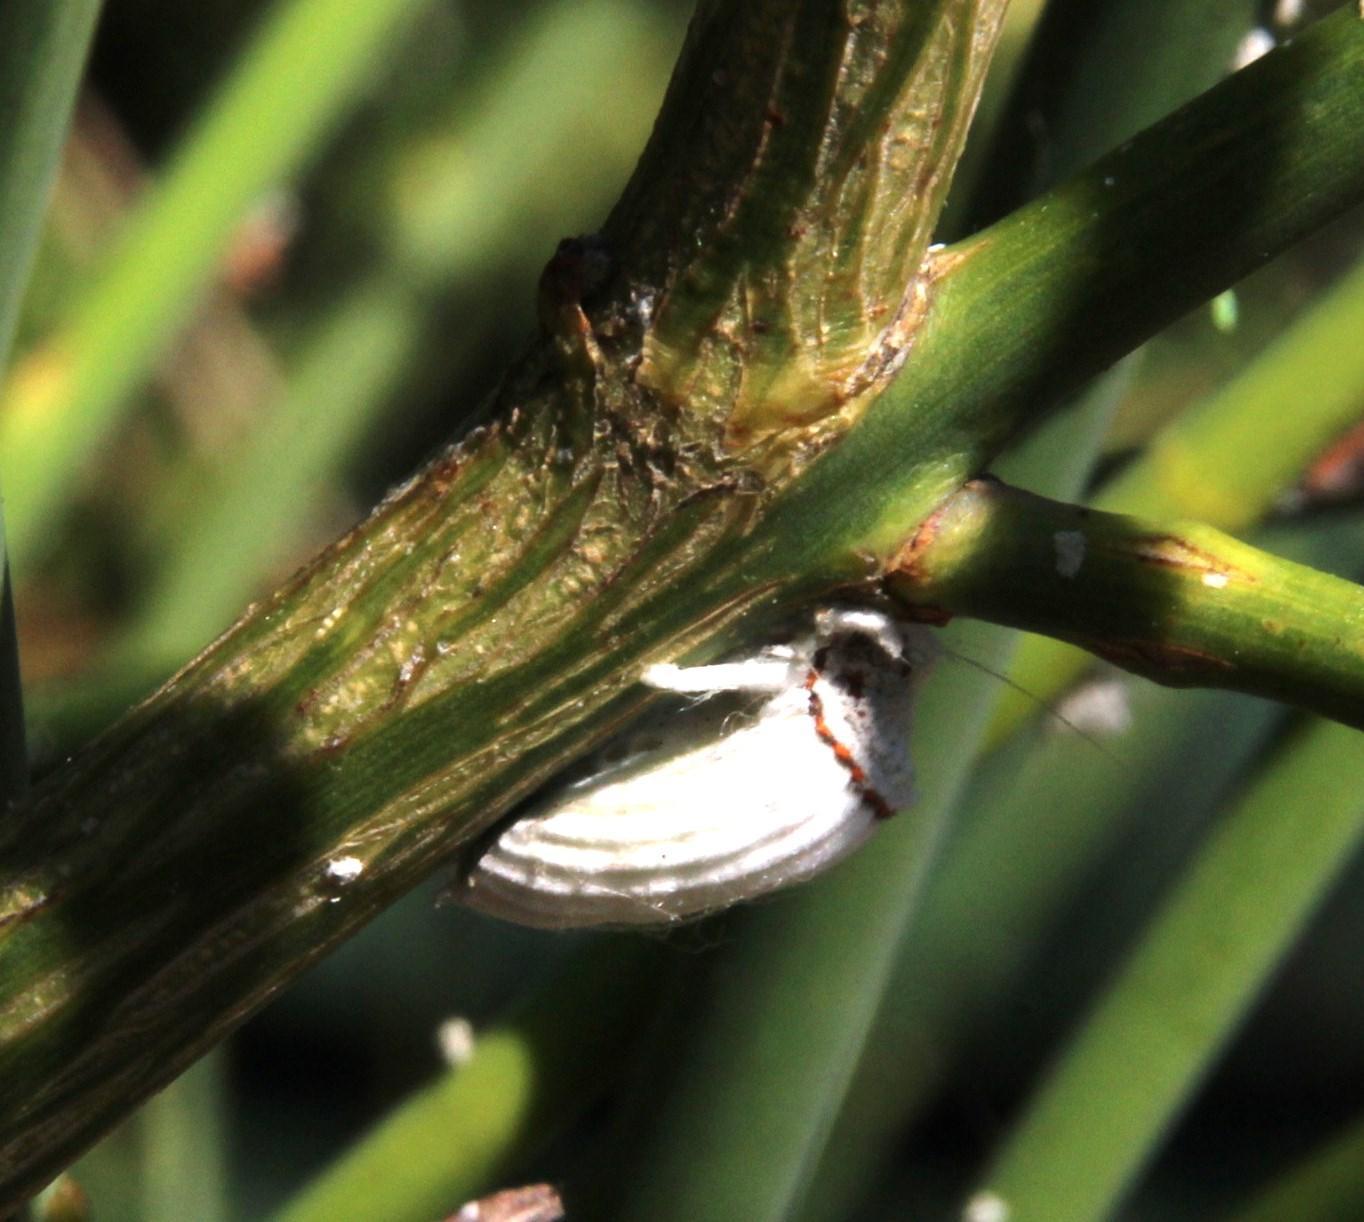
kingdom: Animalia
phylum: Arthropoda
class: Insecta
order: Hemiptera
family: Margarodidae
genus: Icerya
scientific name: Icerya purchasi
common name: Cottony cushion scale
